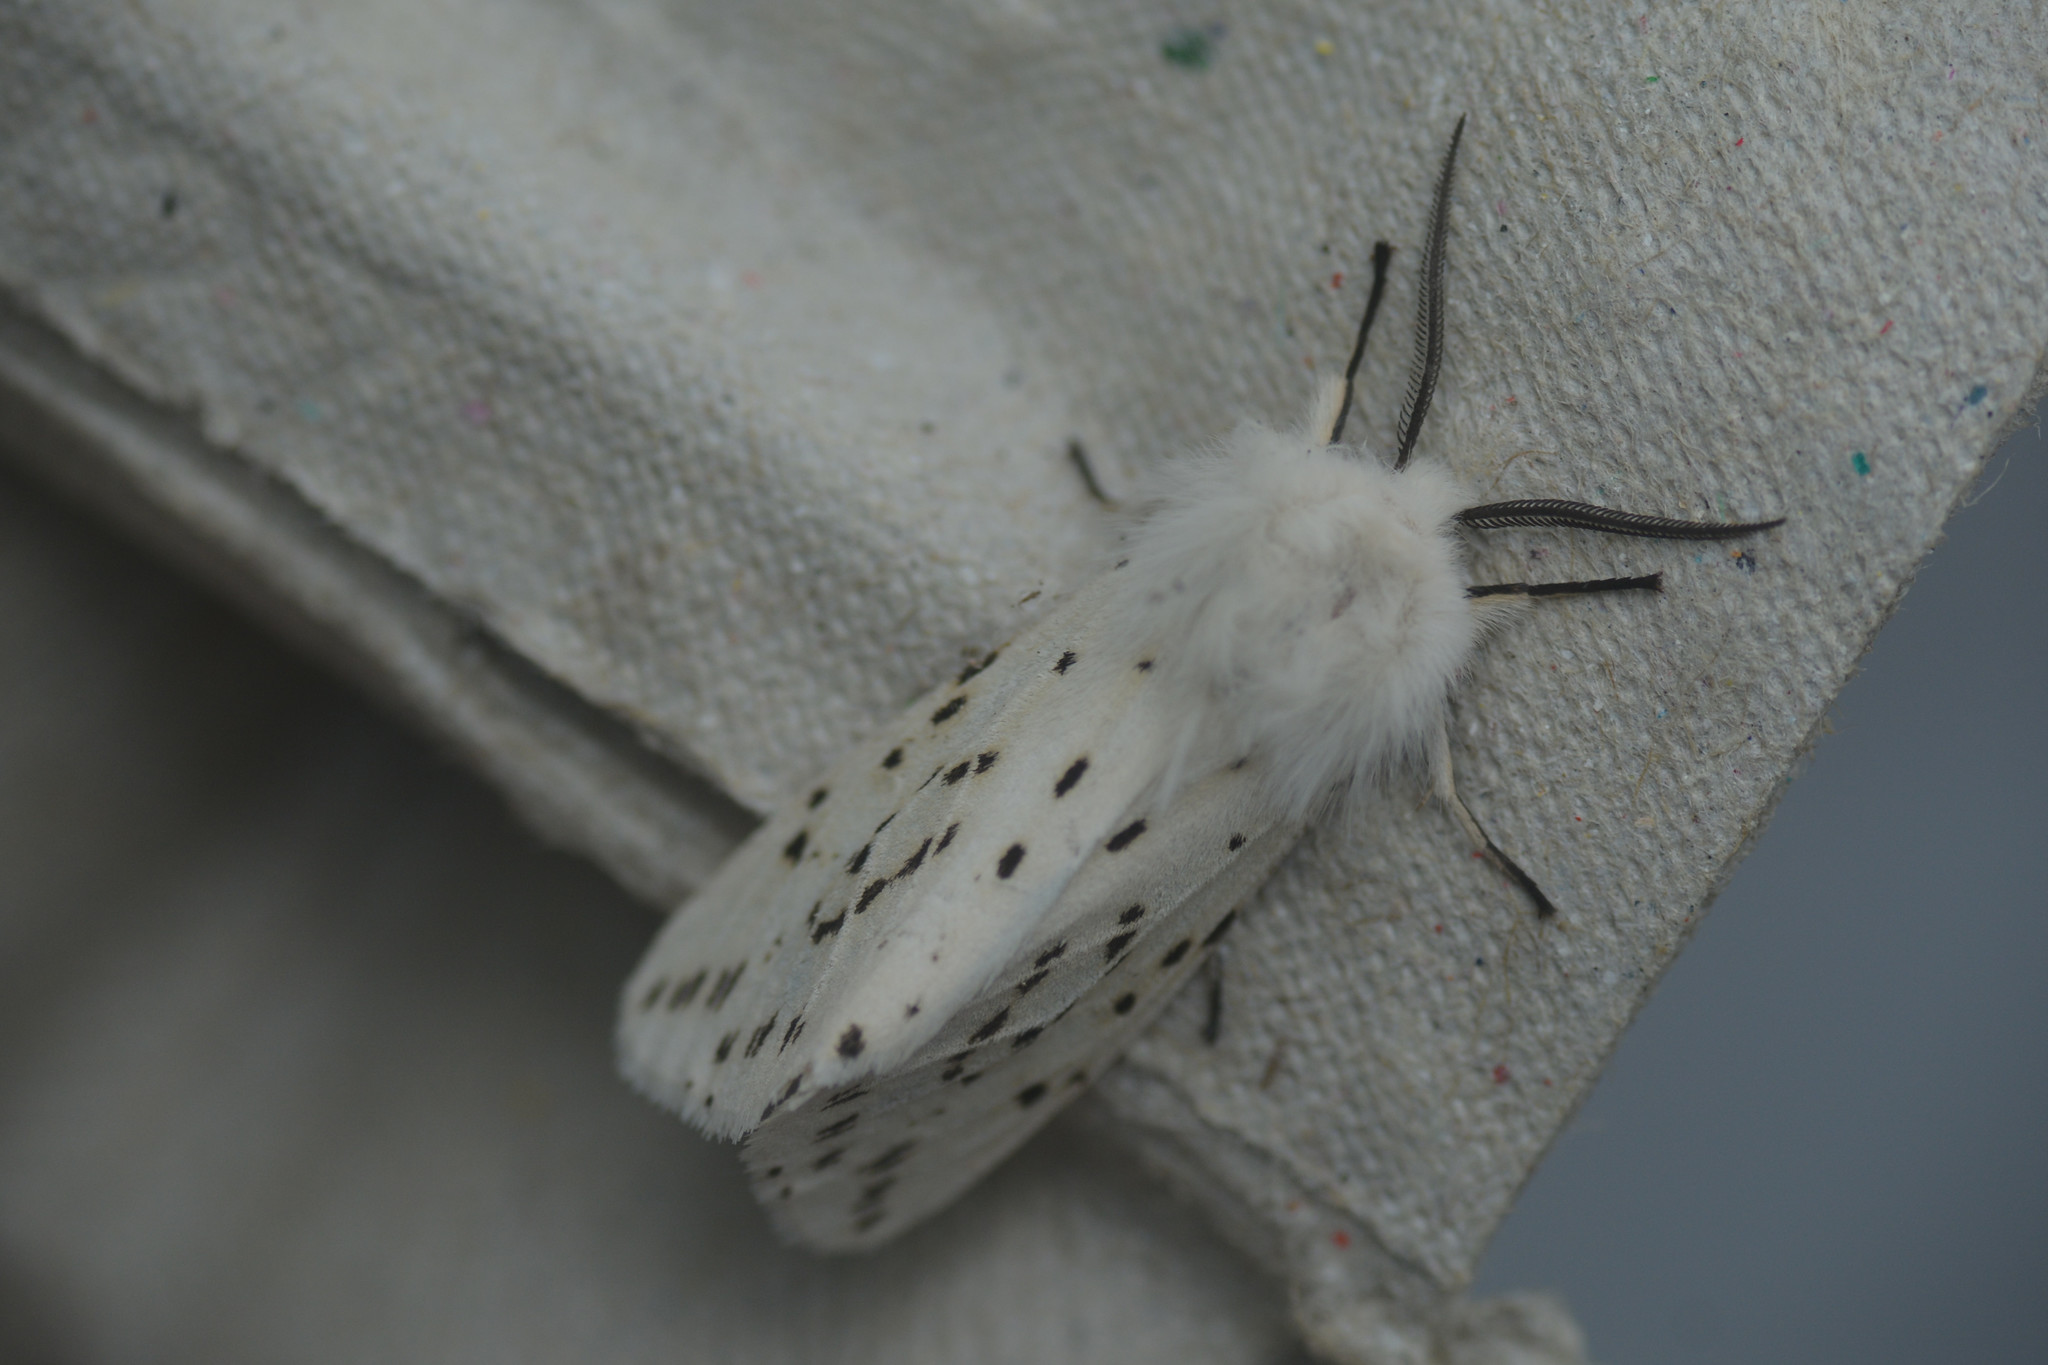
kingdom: Animalia
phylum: Arthropoda
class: Insecta
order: Lepidoptera
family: Erebidae
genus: Spilosoma
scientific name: Spilosoma lubricipeda
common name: White ermine
